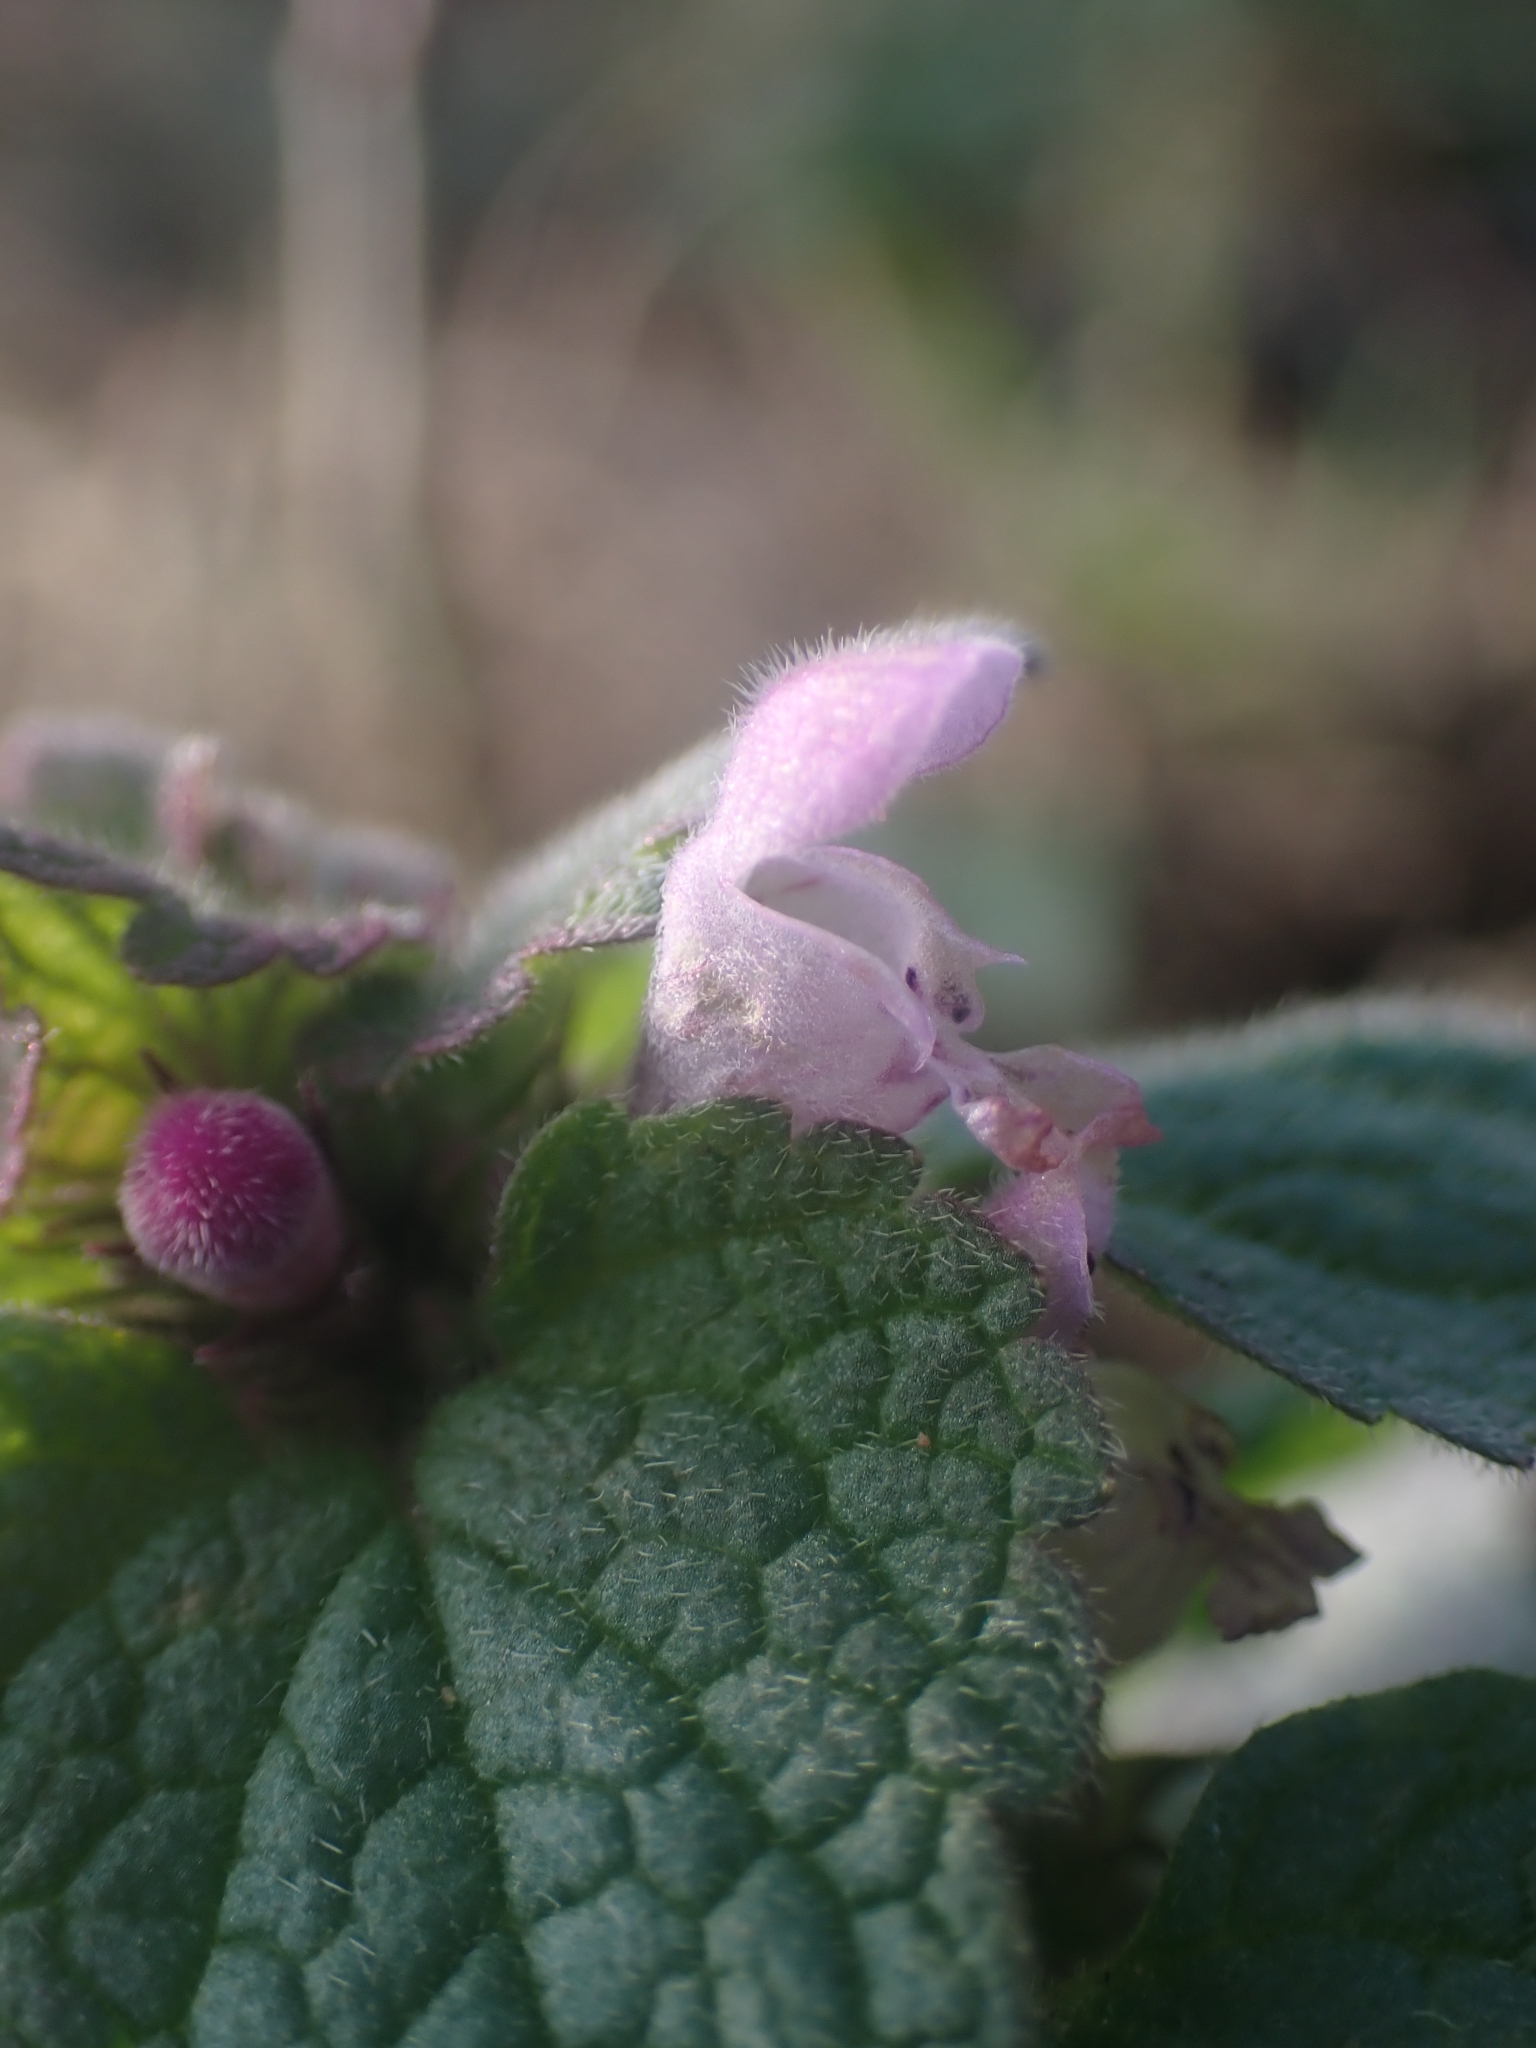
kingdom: Plantae
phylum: Tracheophyta
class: Magnoliopsida
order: Lamiales
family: Lamiaceae
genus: Lamium
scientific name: Lamium purpureum
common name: Red dead-nettle
